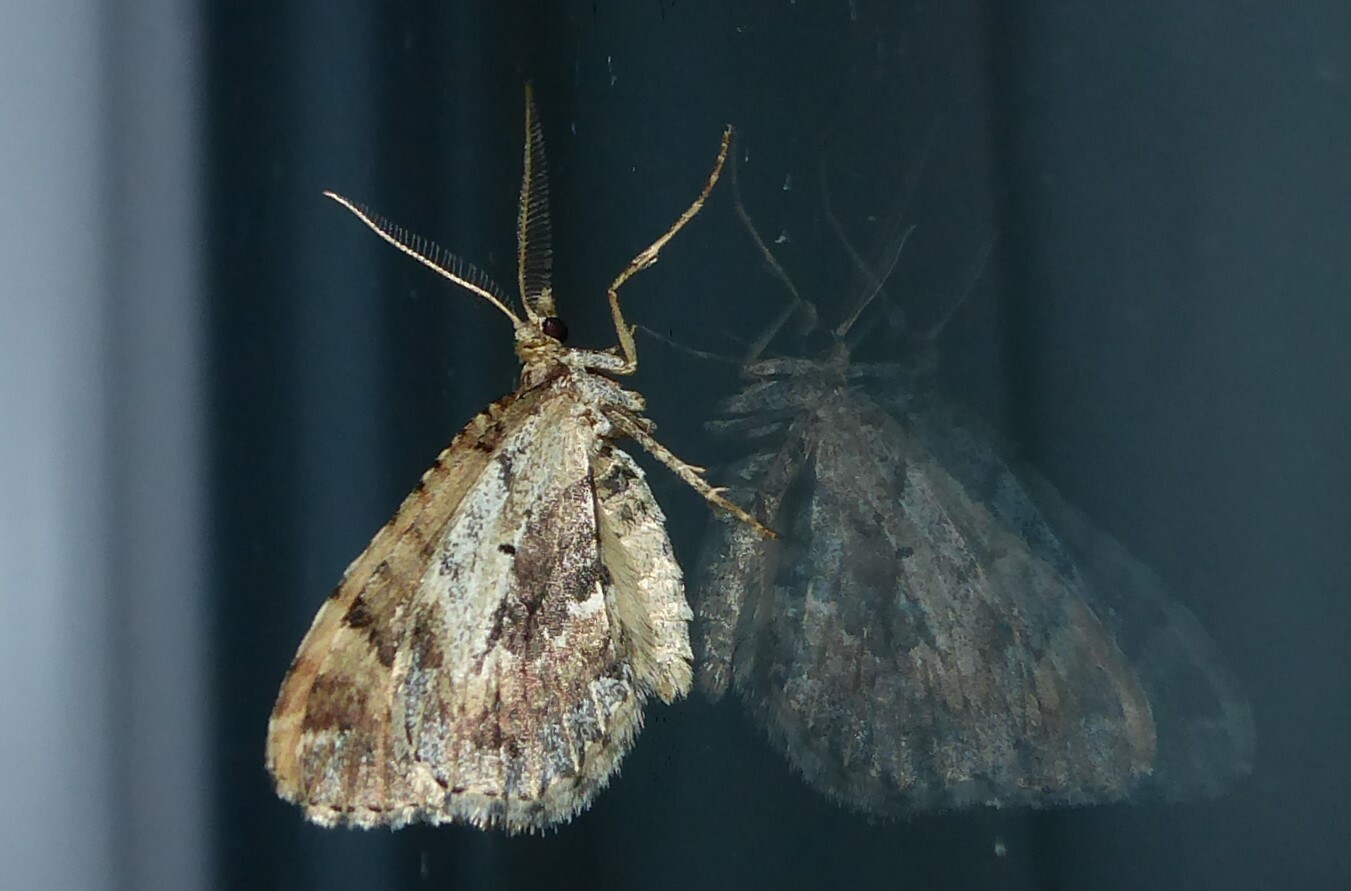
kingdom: Animalia
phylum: Arthropoda
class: Insecta
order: Lepidoptera
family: Geometridae
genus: Asaphodes
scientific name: Asaphodes aegrota
